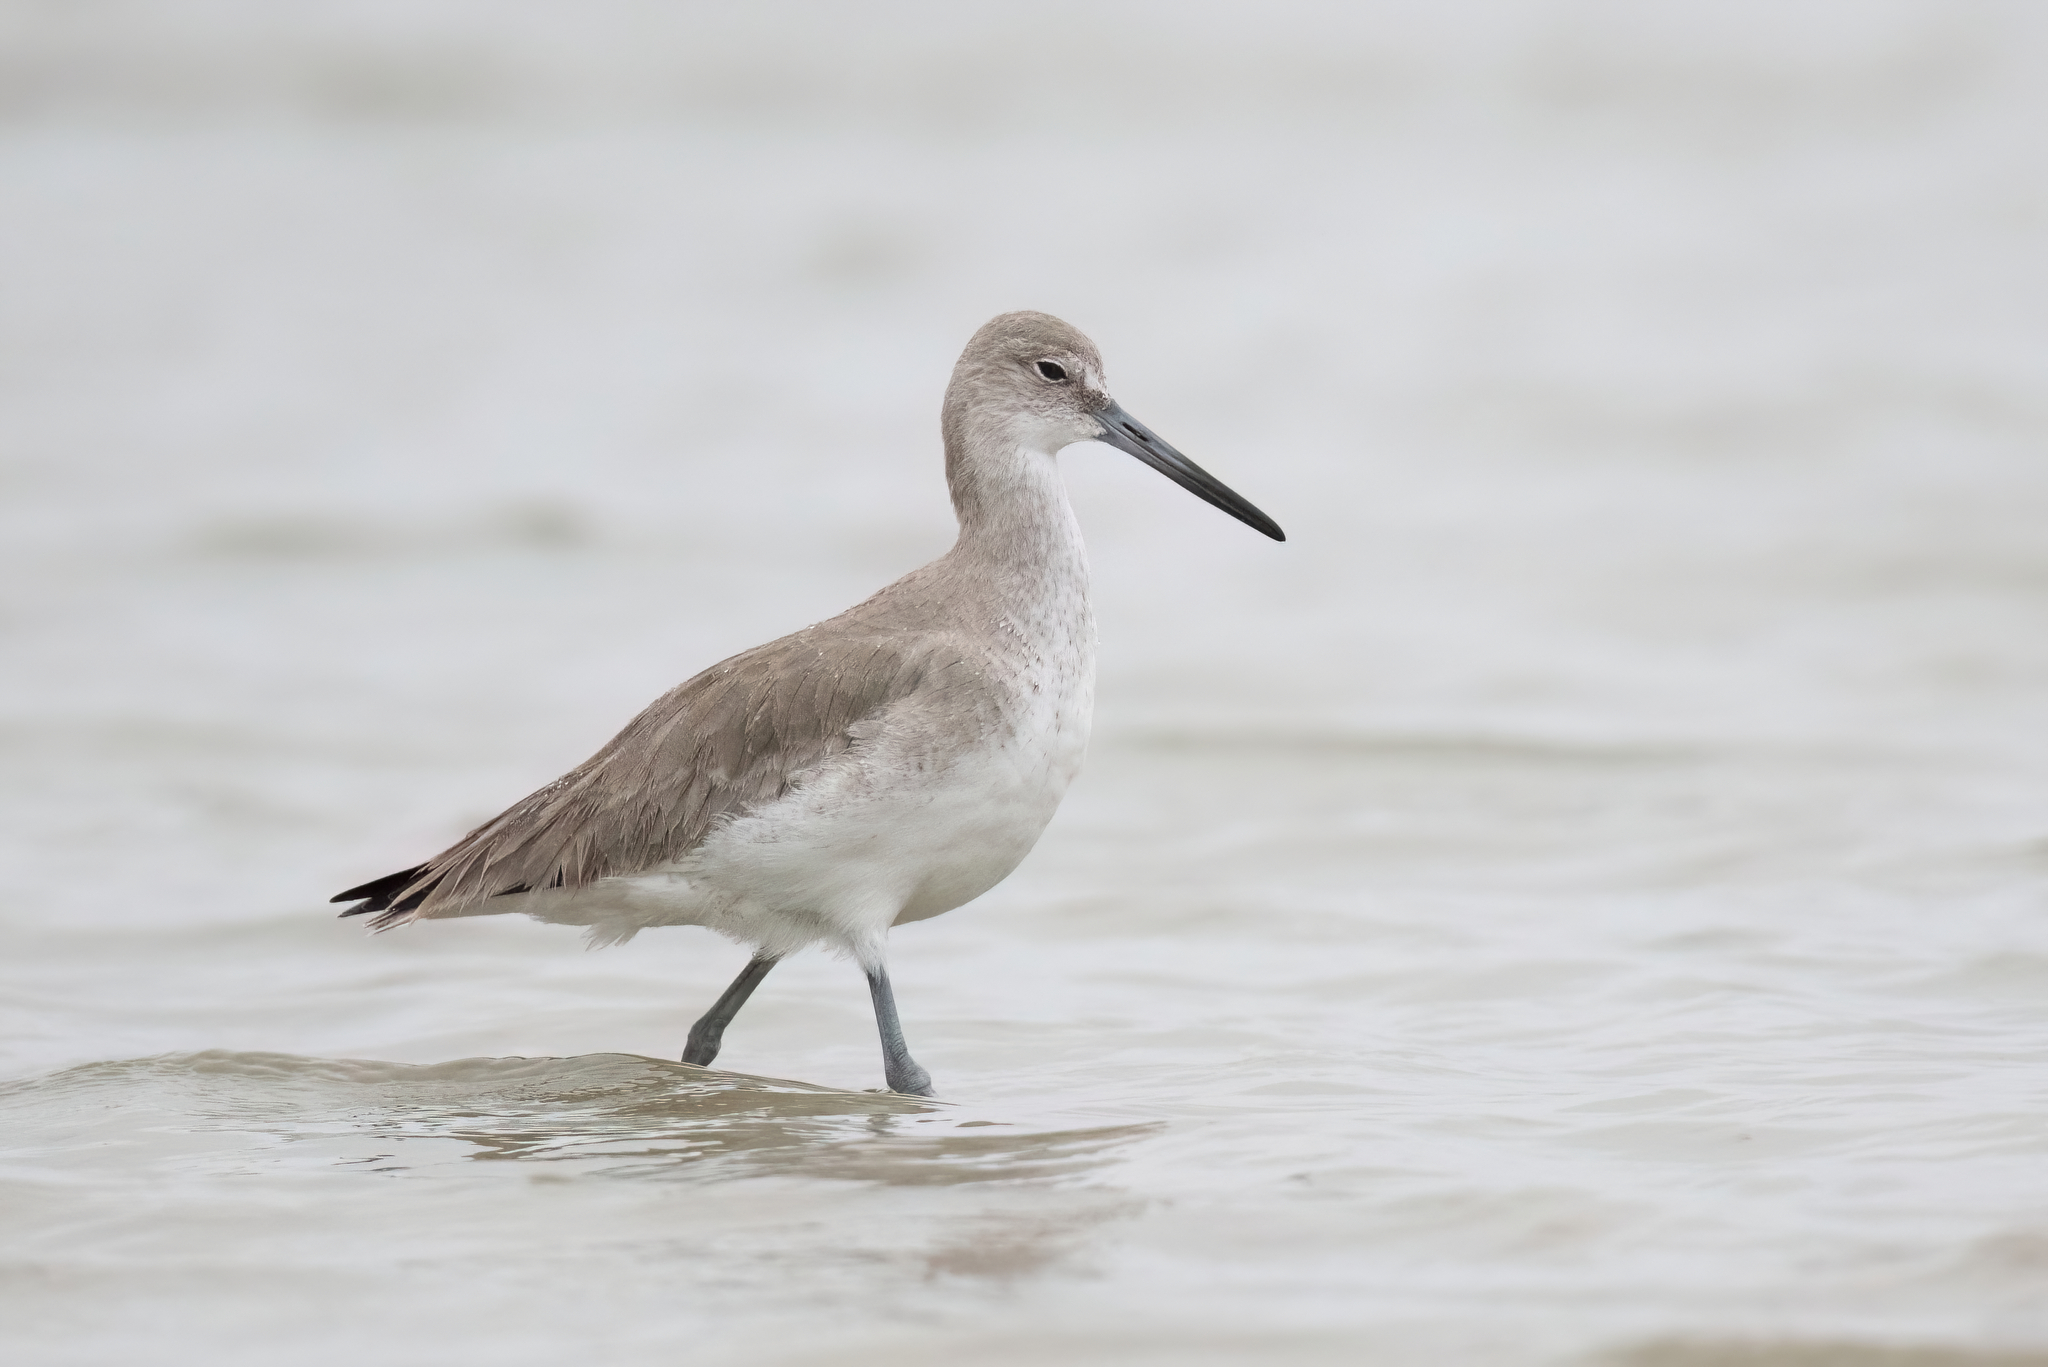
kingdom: Animalia
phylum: Chordata
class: Aves
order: Charadriiformes
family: Scolopacidae
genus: Tringa
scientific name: Tringa semipalmata
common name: Willet
